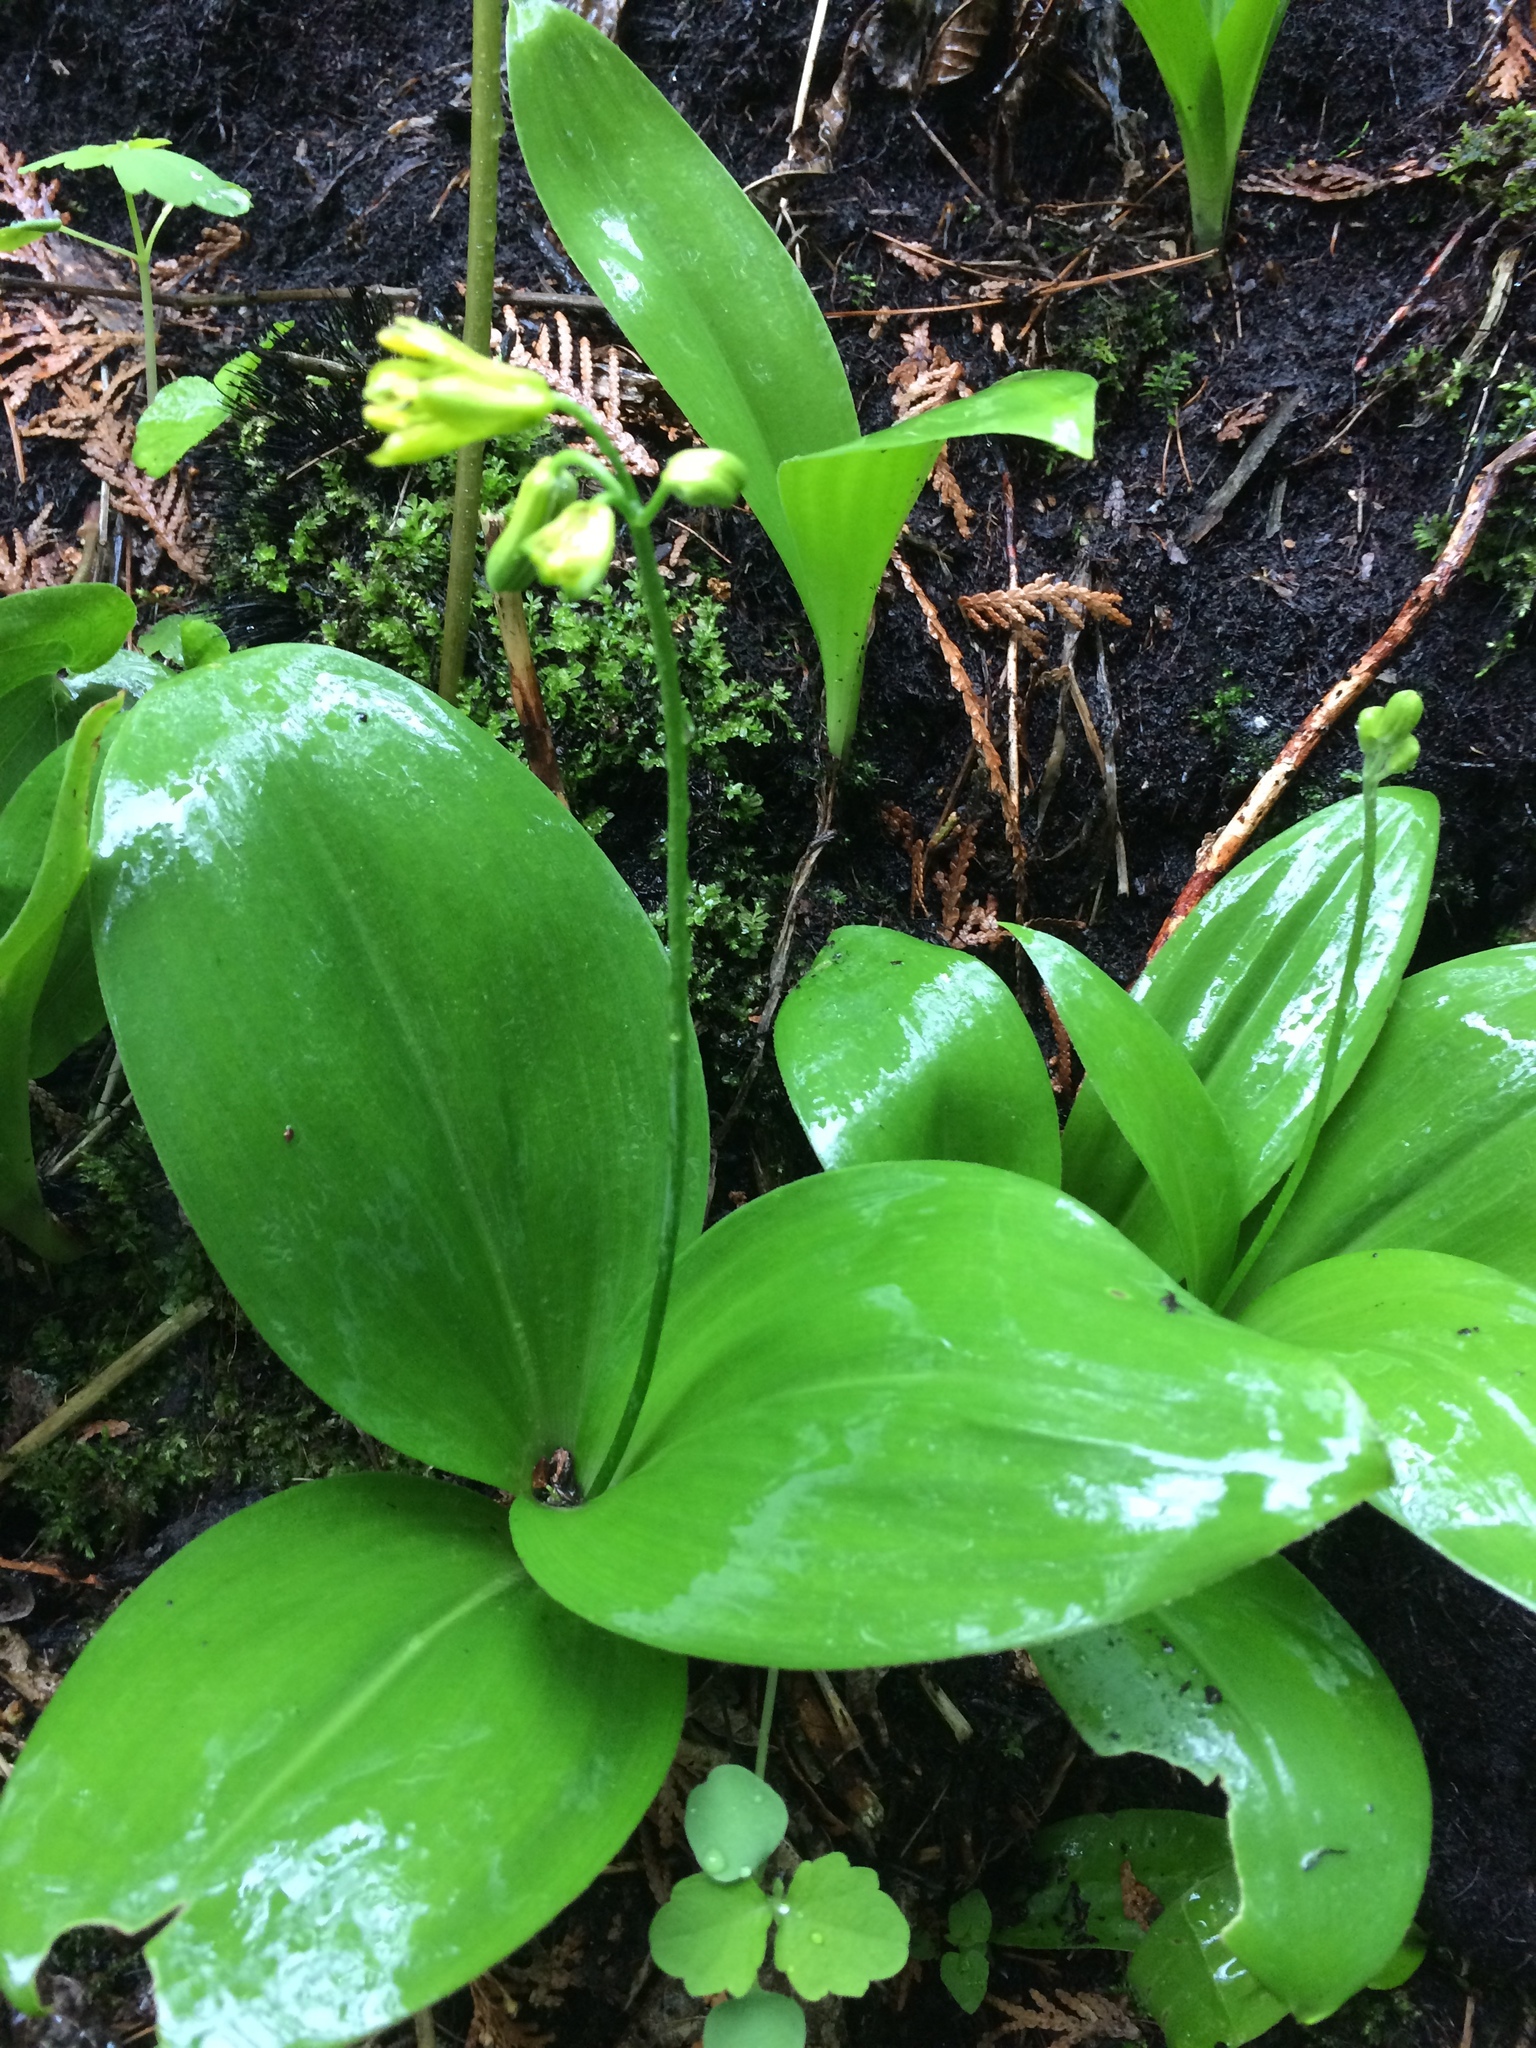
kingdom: Plantae
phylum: Tracheophyta
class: Liliopsida
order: Liliales
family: Liliaceae
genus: Clintonia
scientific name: Clintonia borealis
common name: Yellow clintonia
